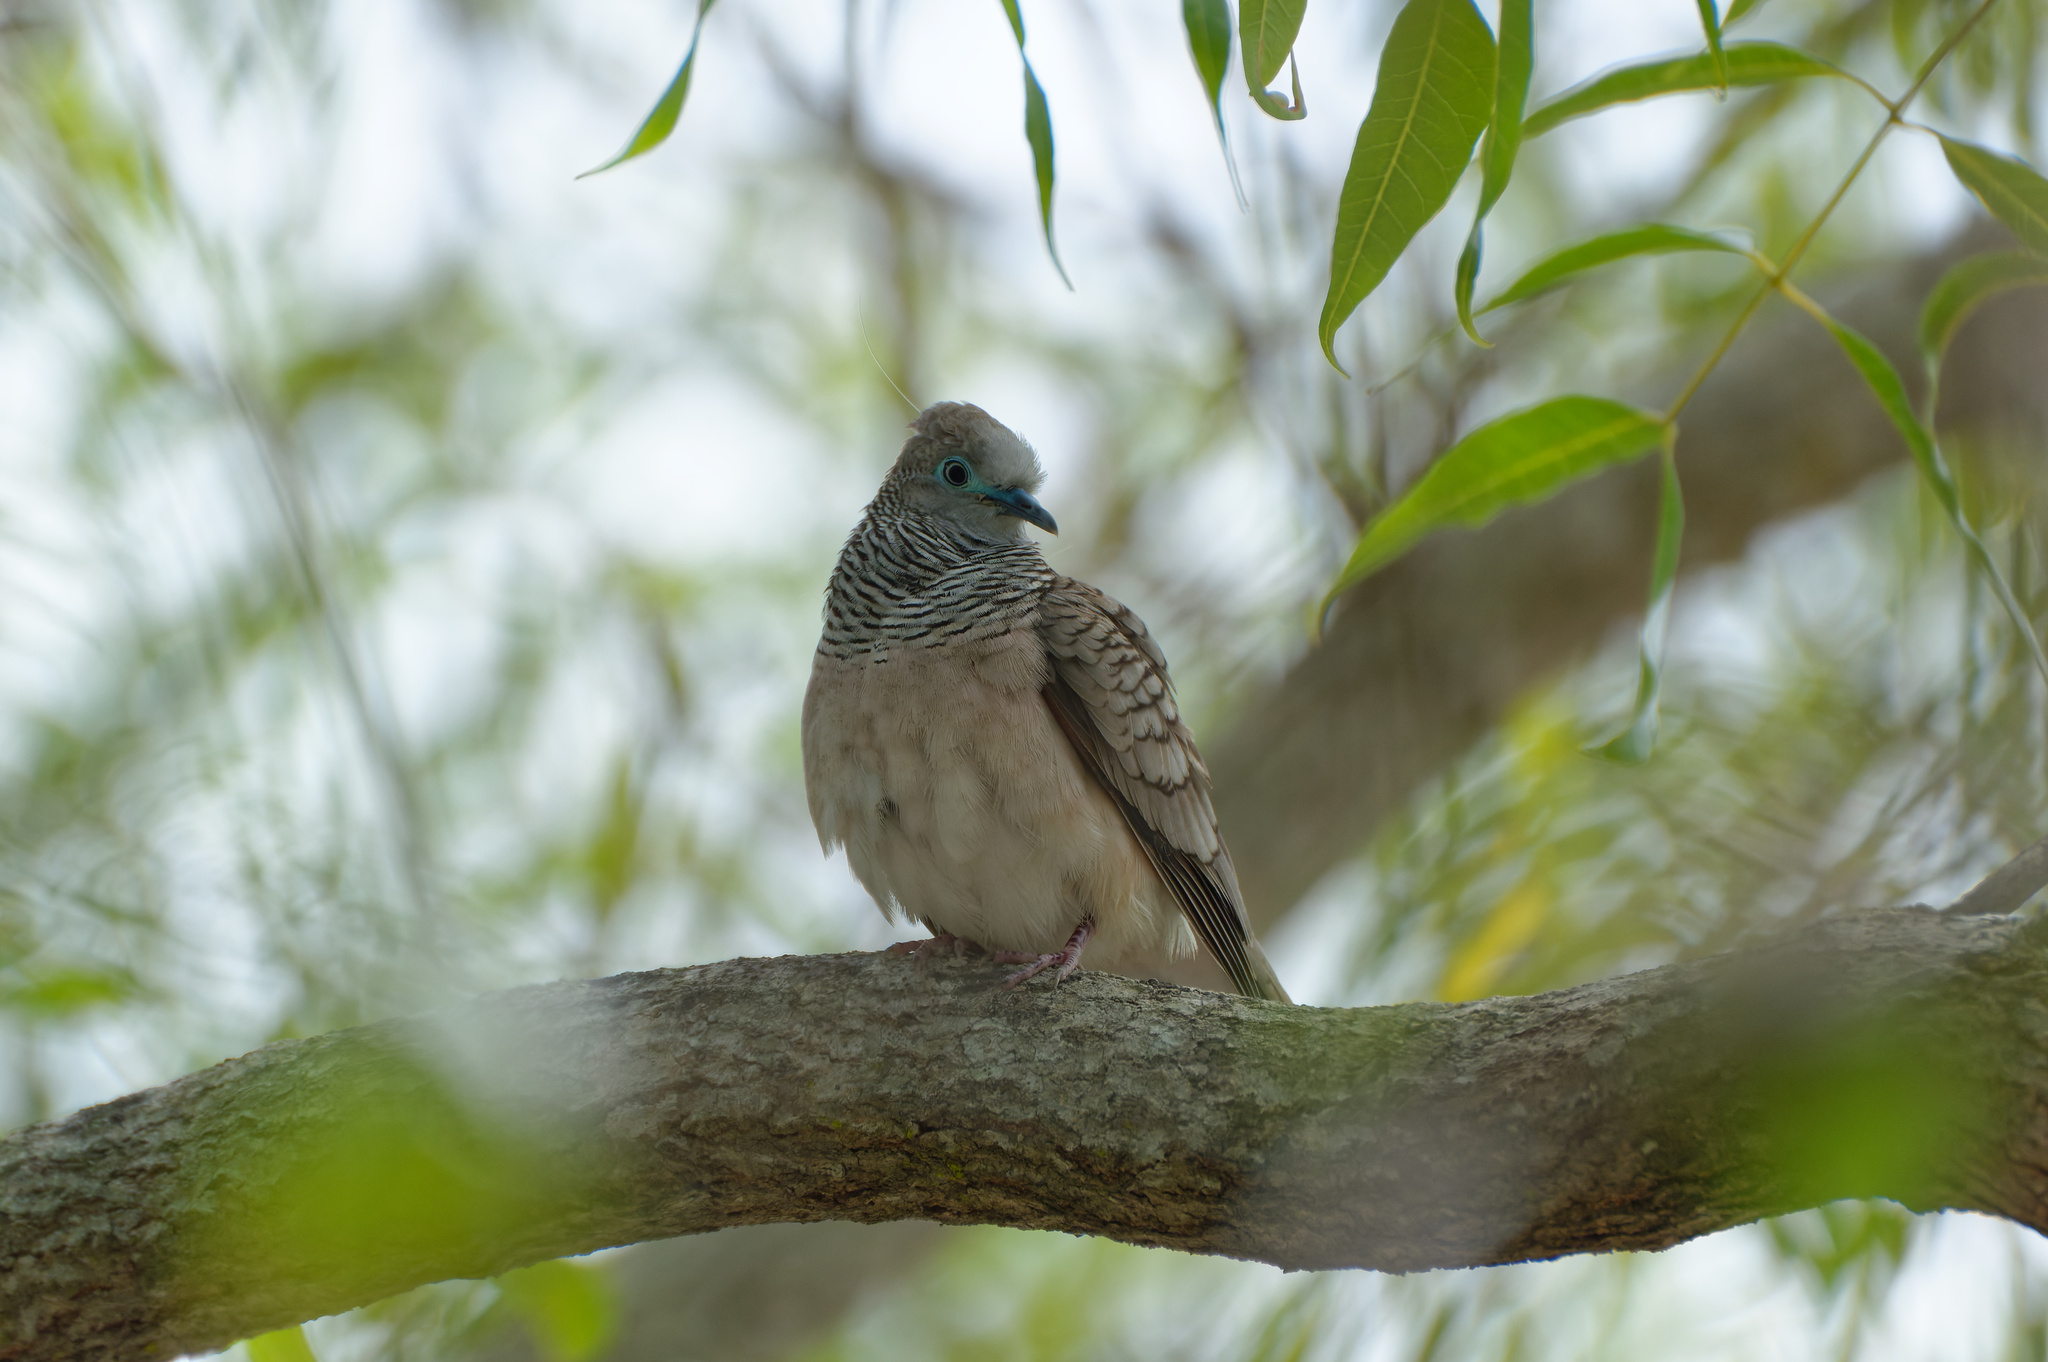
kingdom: Animalia
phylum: Chordata
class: Aves
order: Columbiformes
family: Columbidae
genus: Geopelia
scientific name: Geopelia placida
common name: Peaceful dove
